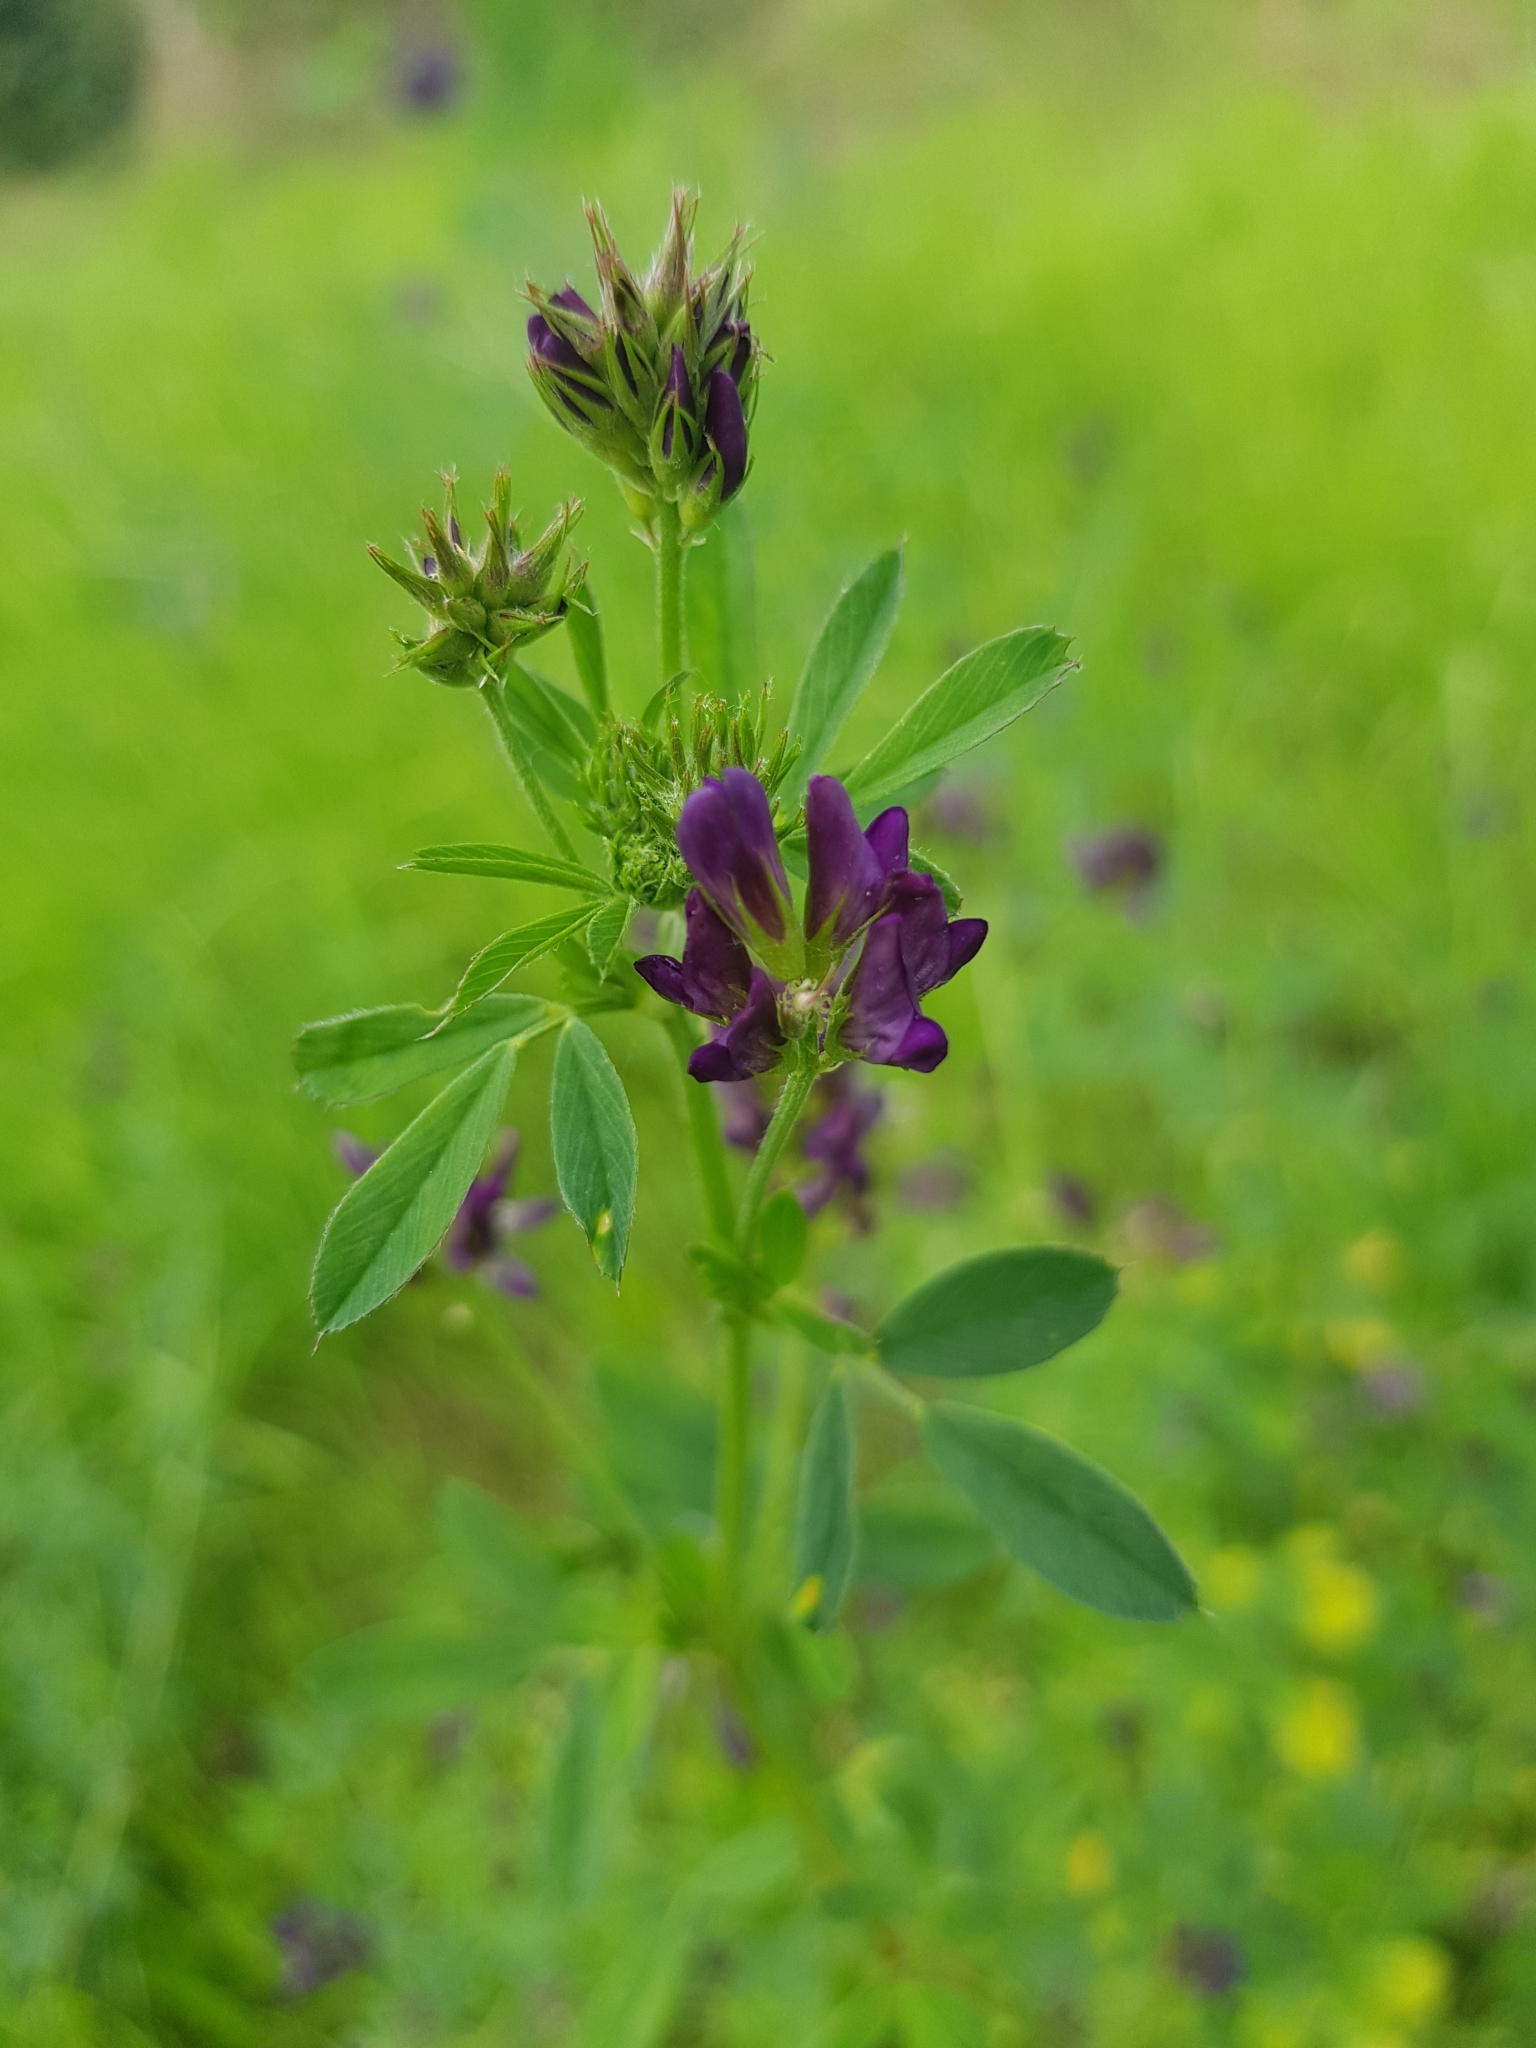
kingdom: Plantae
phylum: Tracheophyta
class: Magnoliopsida
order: Fabales
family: Fabaceae
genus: Medicago
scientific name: Medicago sativa
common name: Alfalfa
